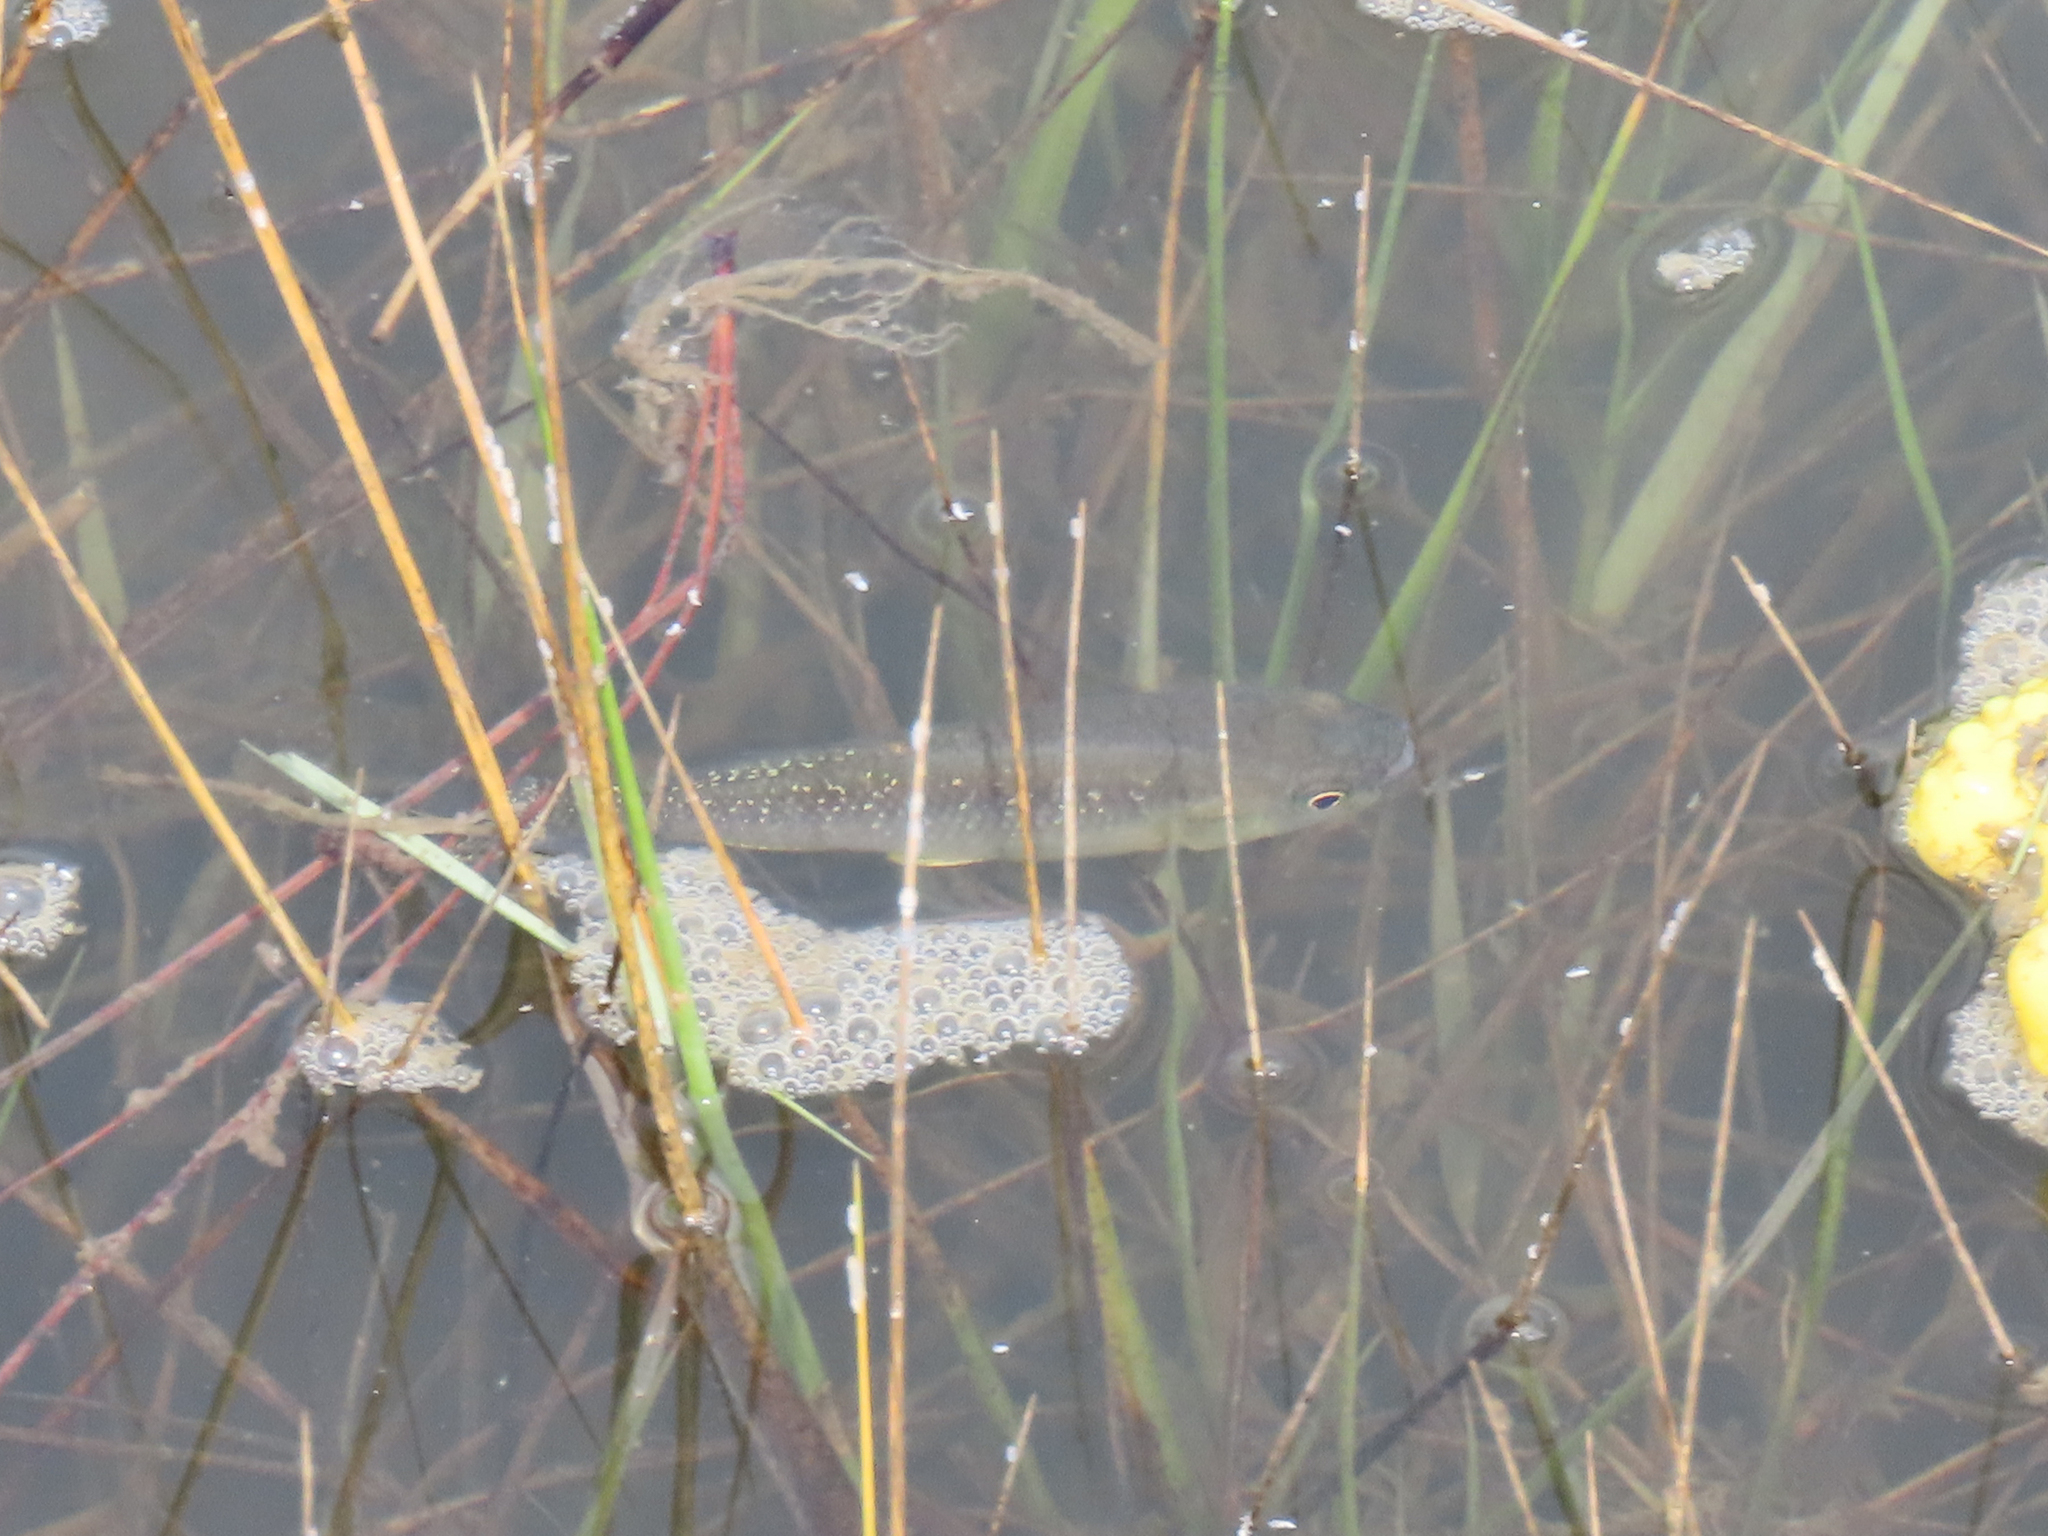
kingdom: Animalia
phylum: Chordata
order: Cyprinodontiformes
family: Fundulidae
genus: Fundulus
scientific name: Fundulus heteroclitus
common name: Mummichog
